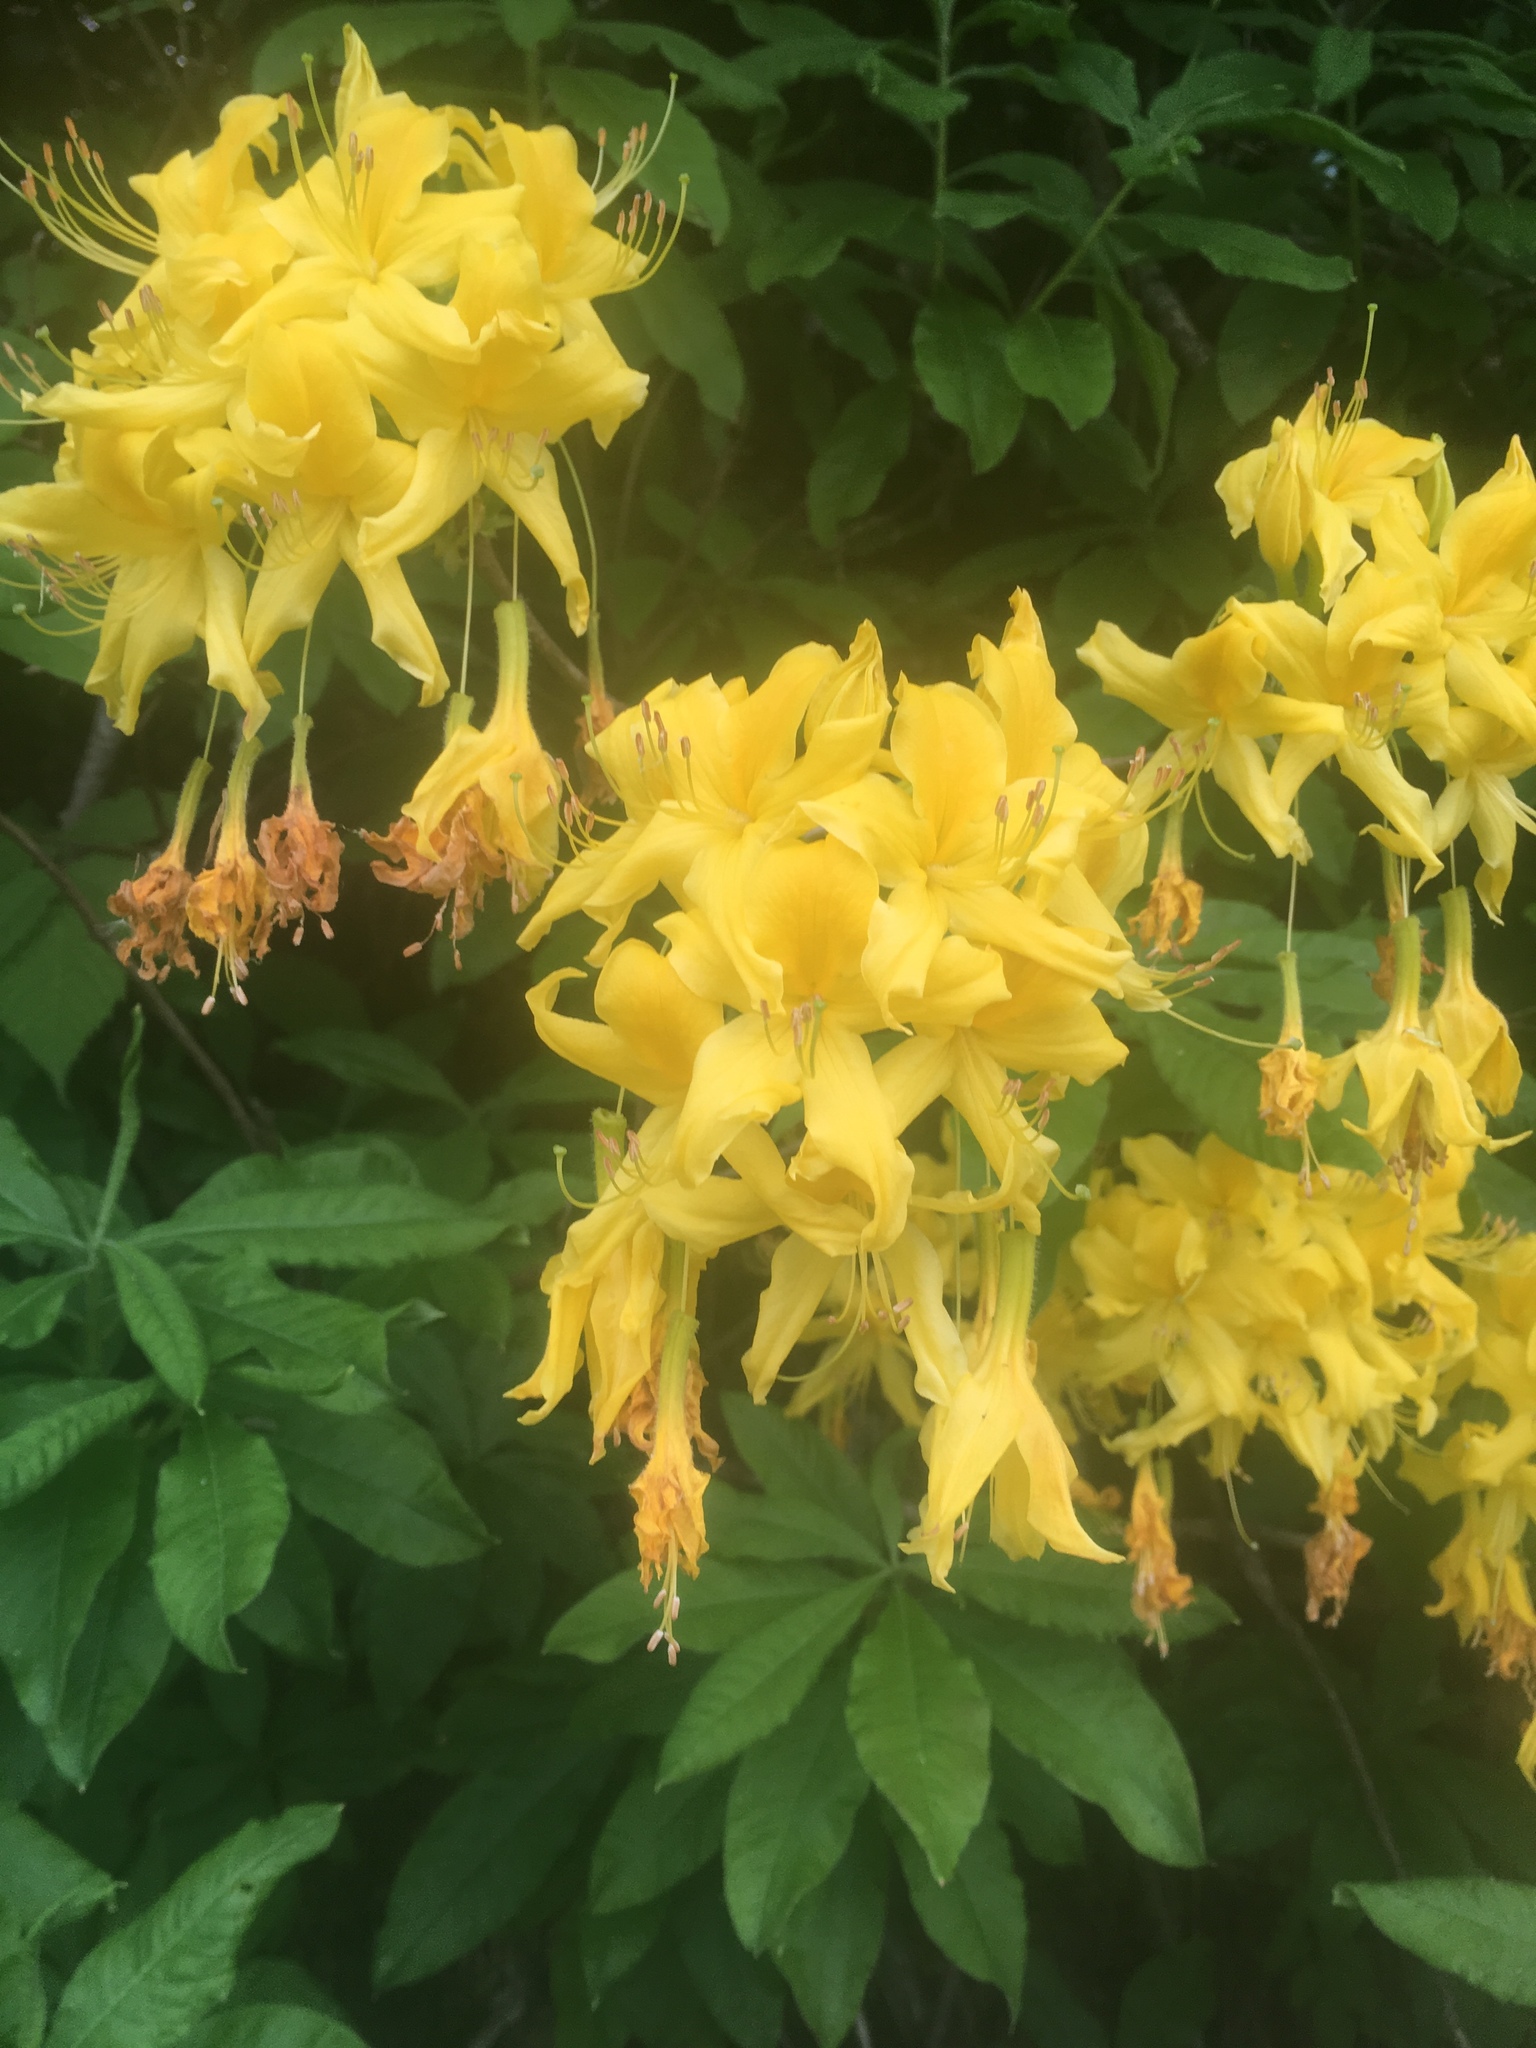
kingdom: Plantae
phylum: Tracheophyta
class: Magnoliopsida
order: Ericales
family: Ericaceae
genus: Rhododendron
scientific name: Rhododendron luteum
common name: Yellow azalea
